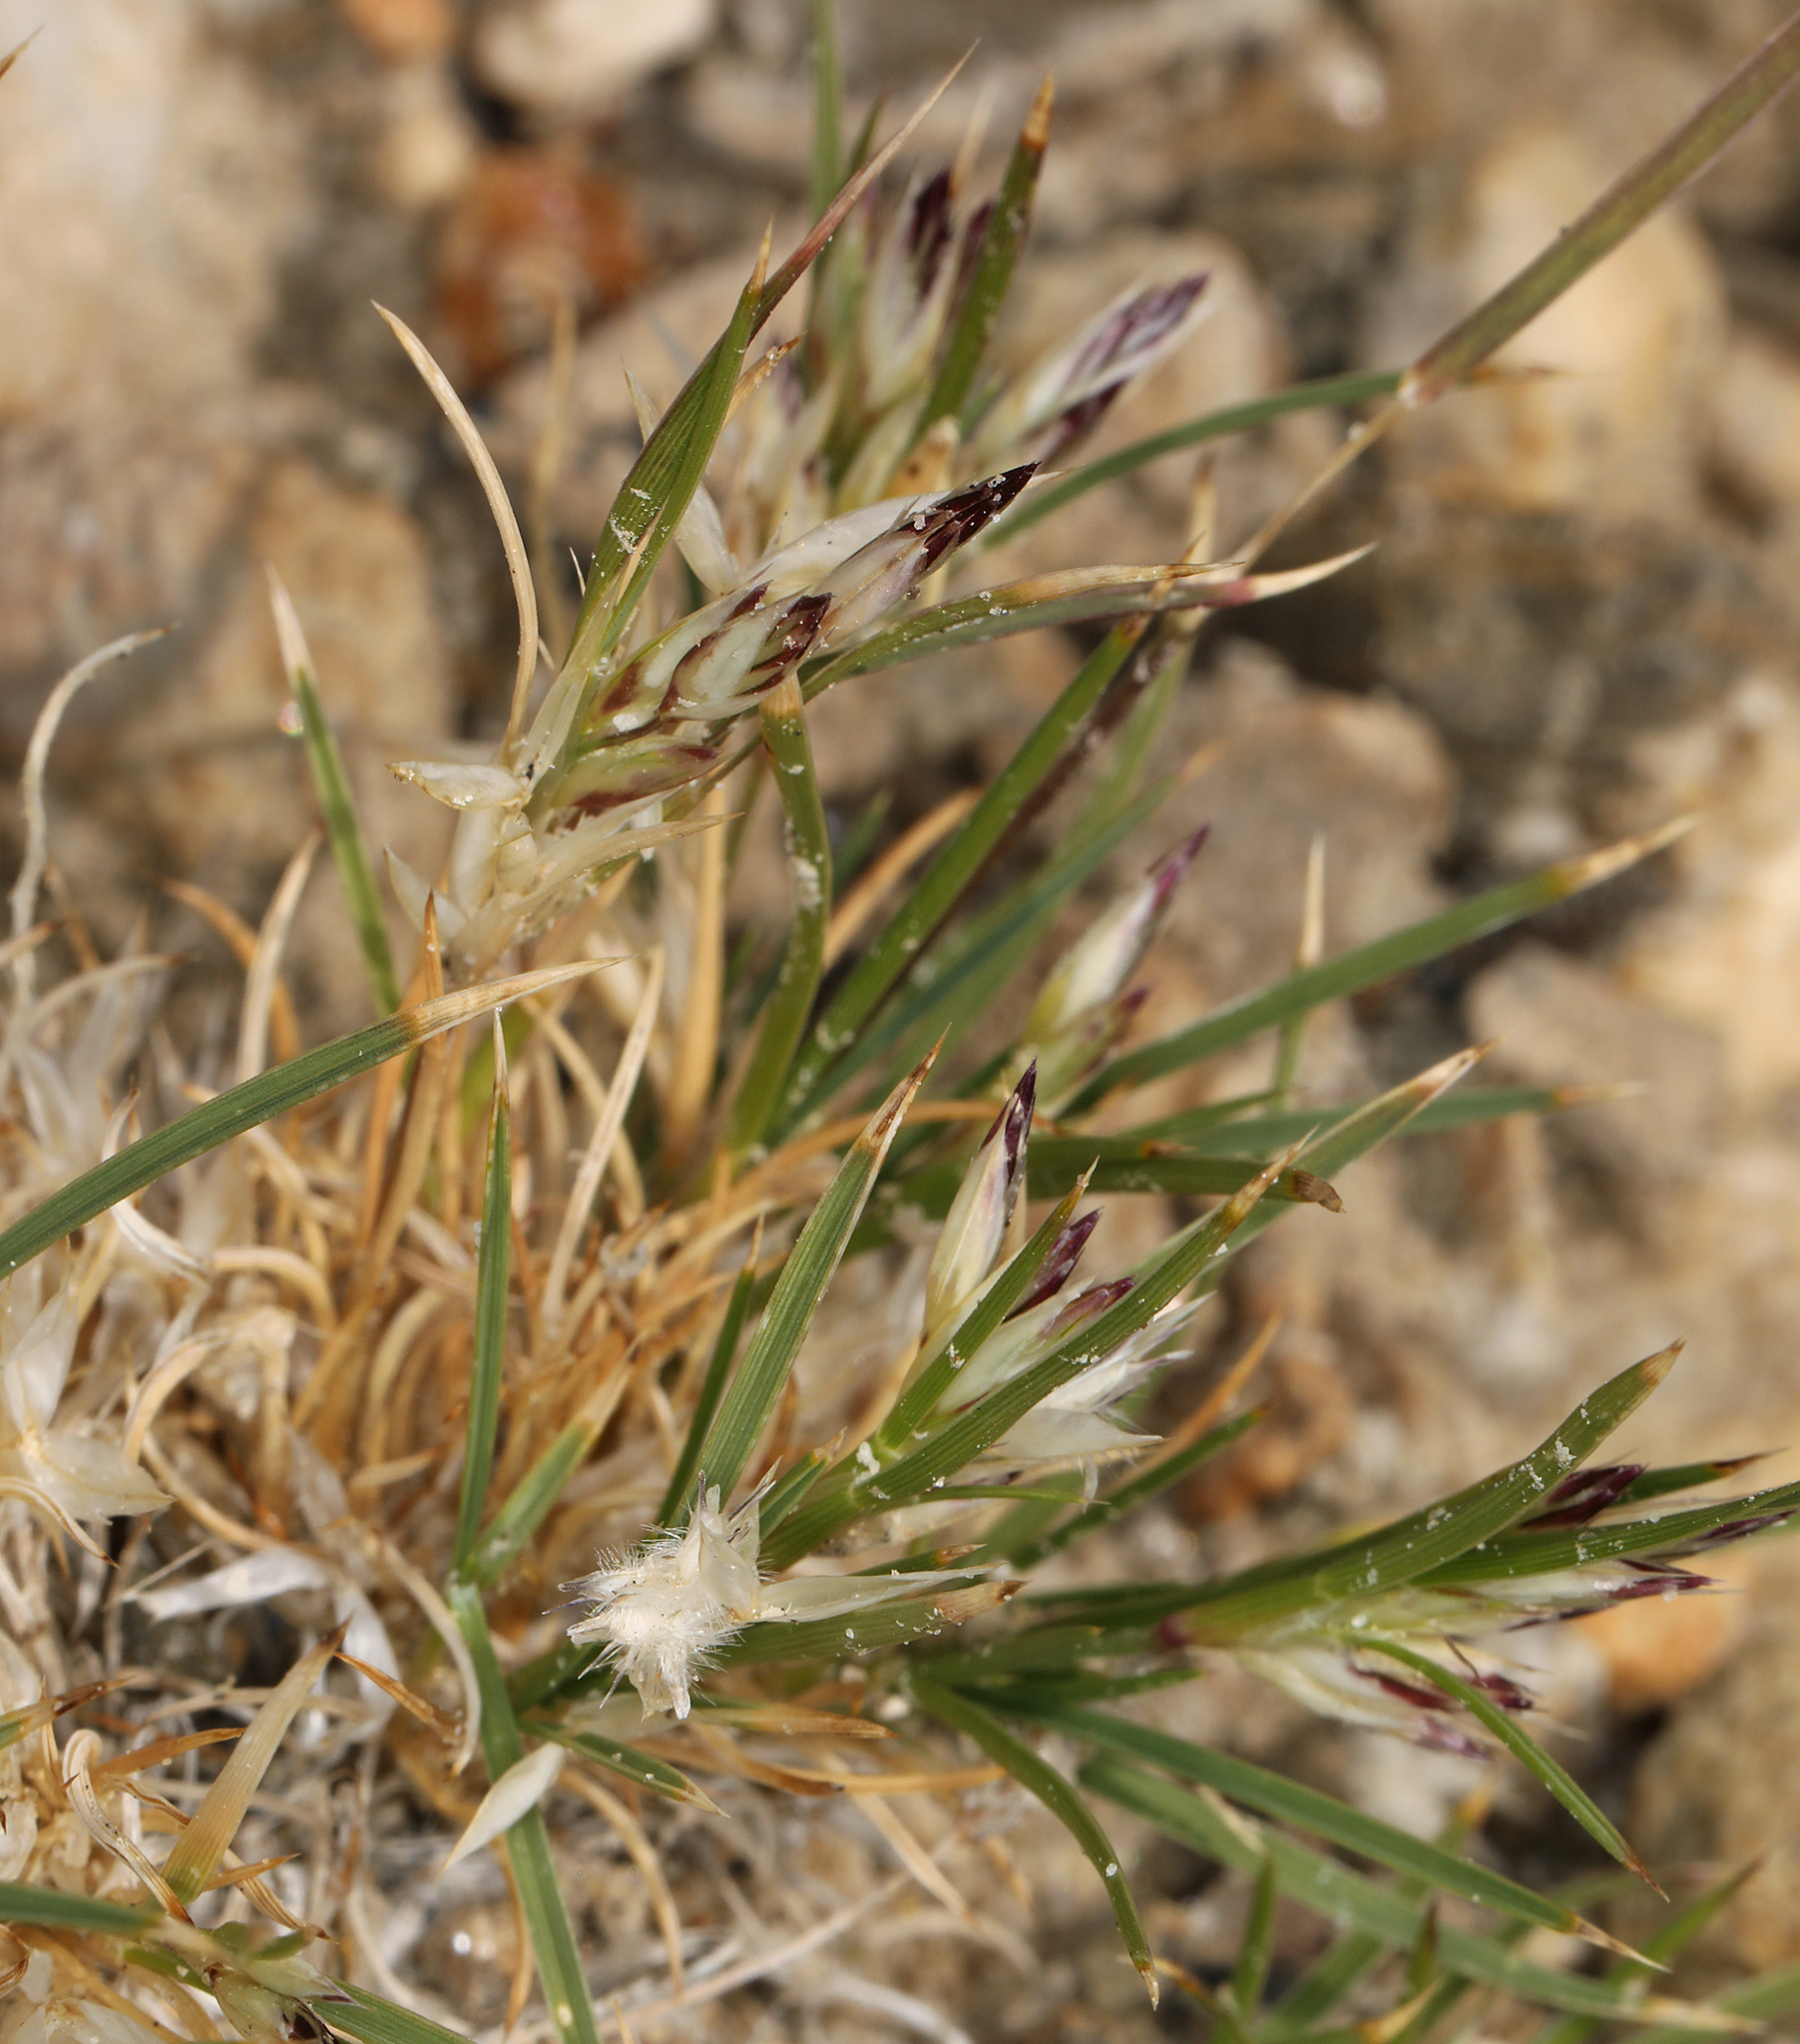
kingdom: Plantae
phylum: Tracheophyta
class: Liliopsida
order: Poales
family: Poaceae
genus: Dasyochloa
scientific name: Dasyochloa pulchella
